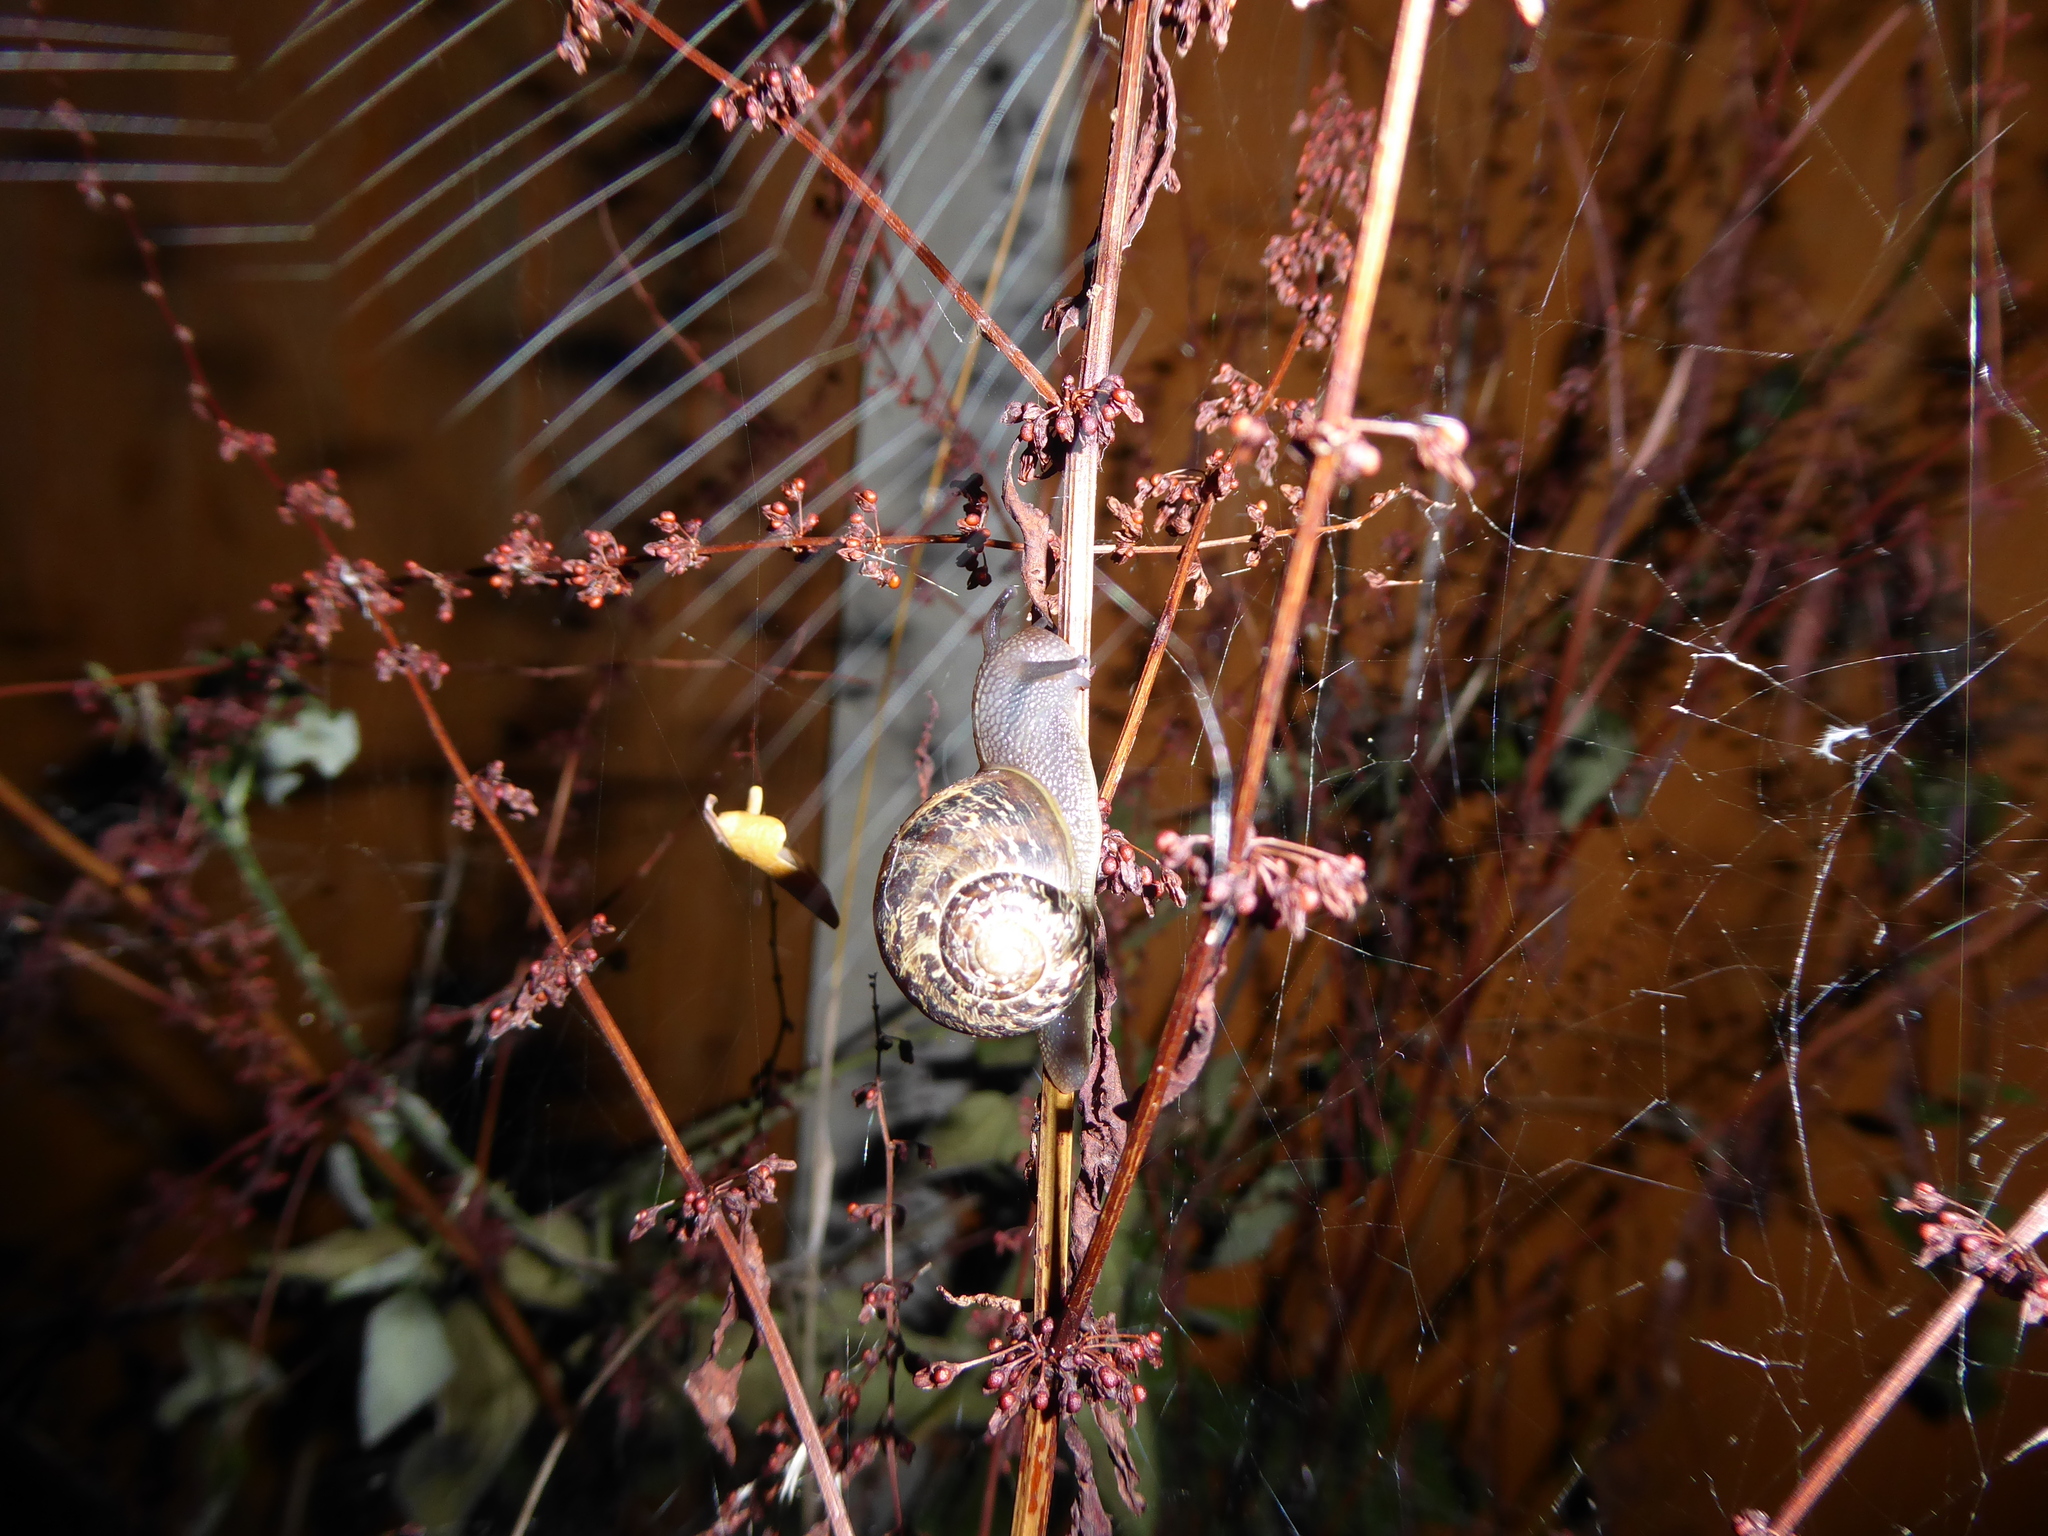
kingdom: Animalia
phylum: Mollusca
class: Gastropoda
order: Stylommatophora
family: Helicidae
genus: Cornu
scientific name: Cornu aspersum
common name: Brown garden snail
